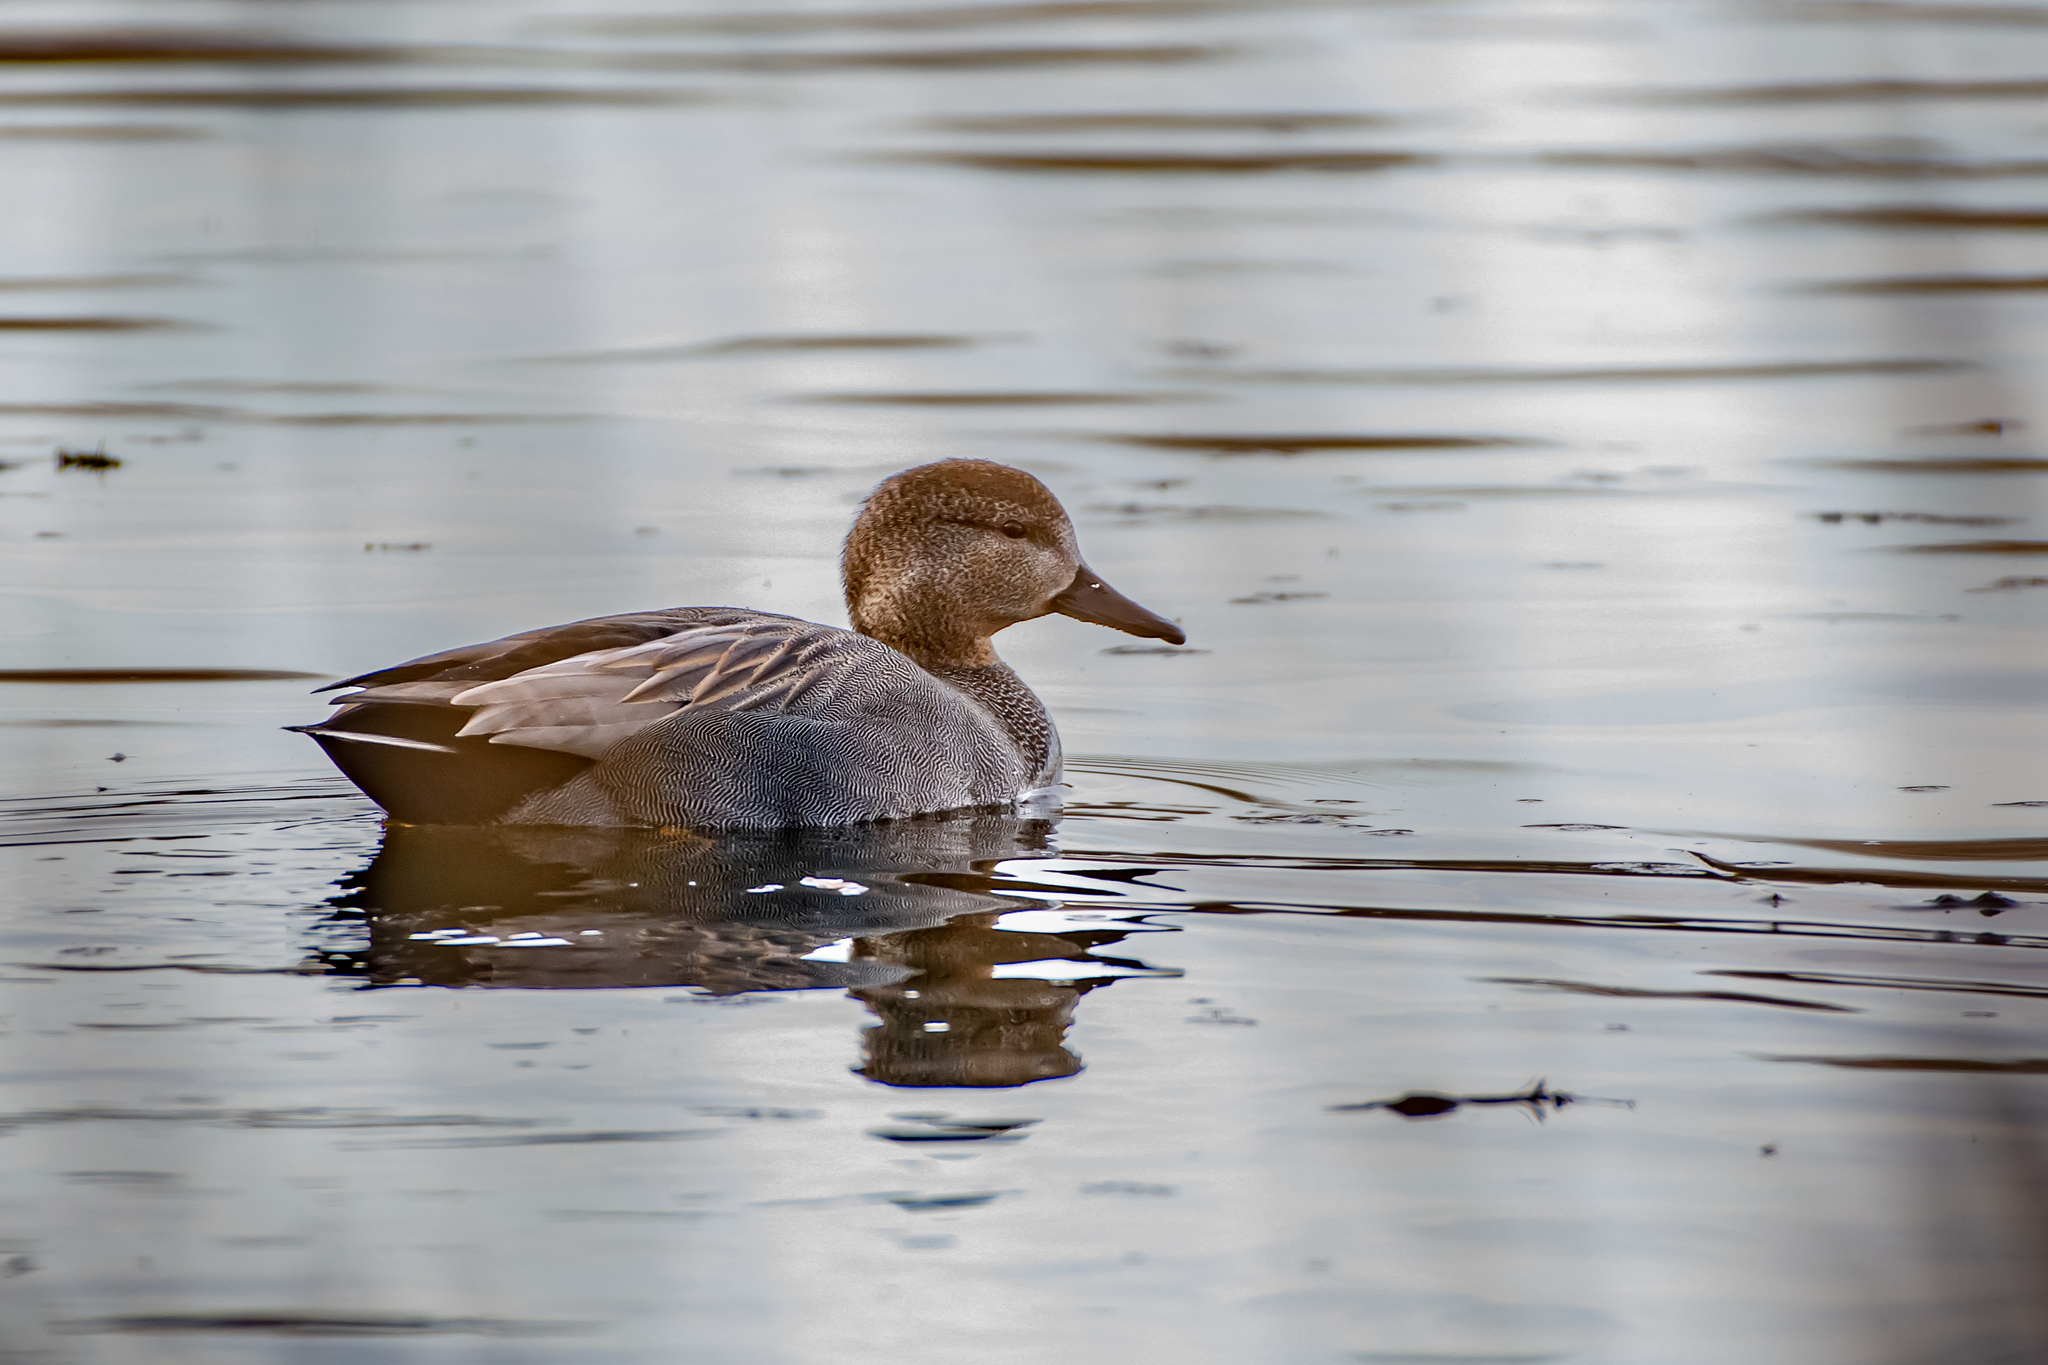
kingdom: Animalia
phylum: Chordata
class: Aves
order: Anseriformes
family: Anatidae
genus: Mareca
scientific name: Mareca strepera
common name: Gadwall
